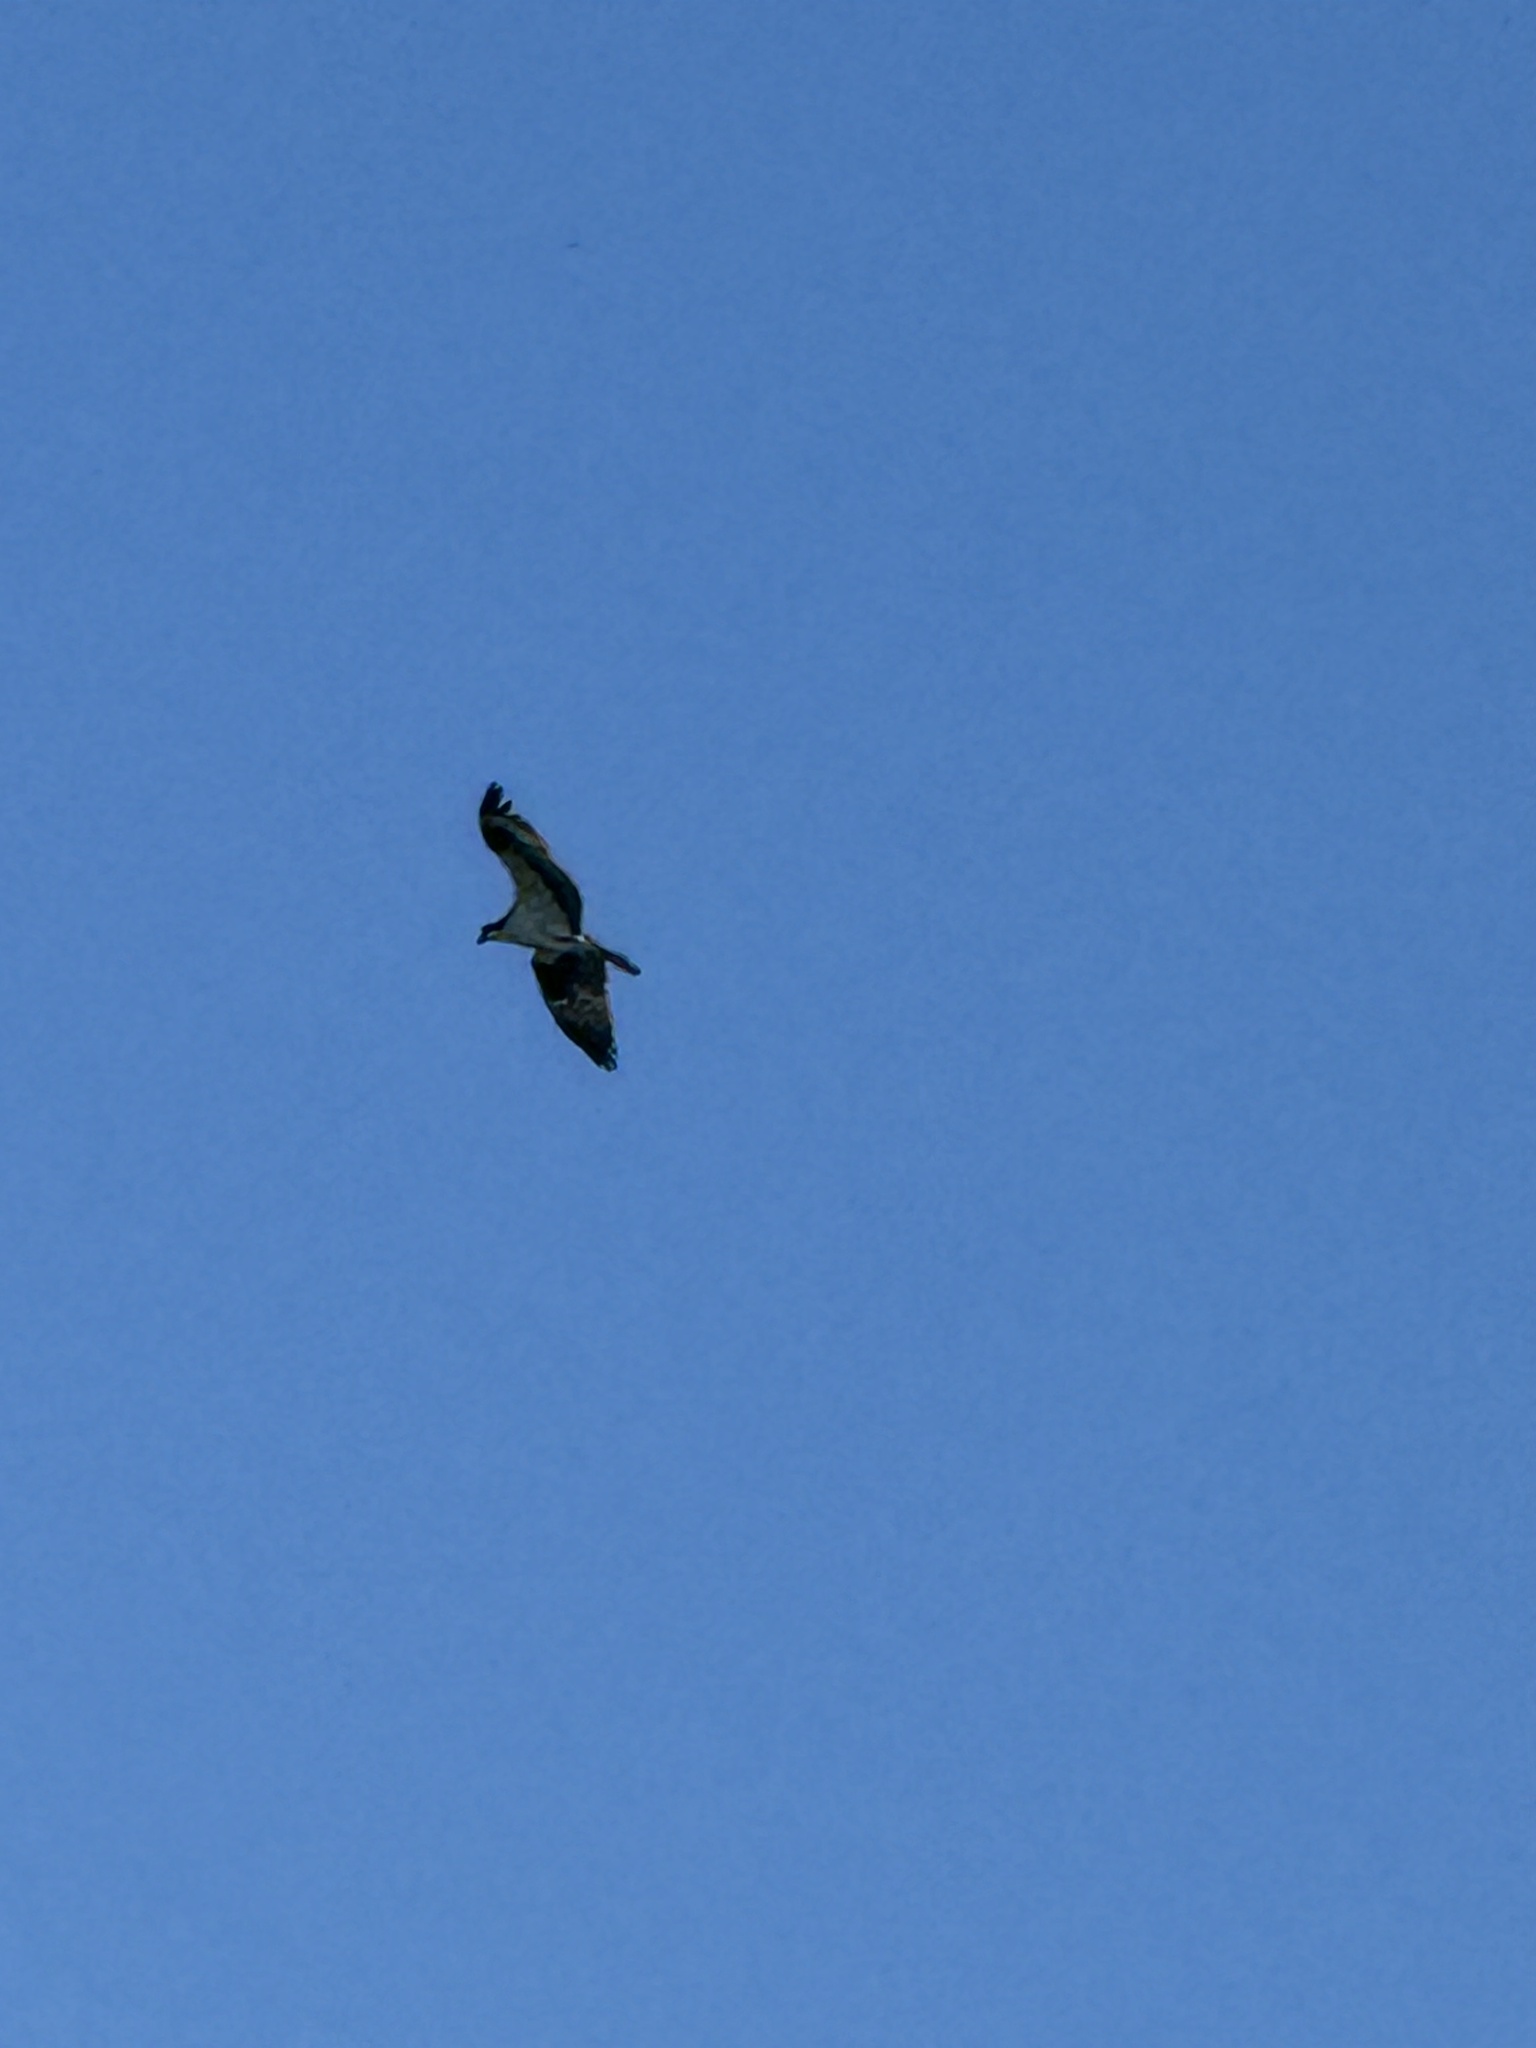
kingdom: Animalia
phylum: Chordata
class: Aves
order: Accipitriformes
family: Pandionidae
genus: Pandion
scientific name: Pandion haliaetus
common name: Osprey
